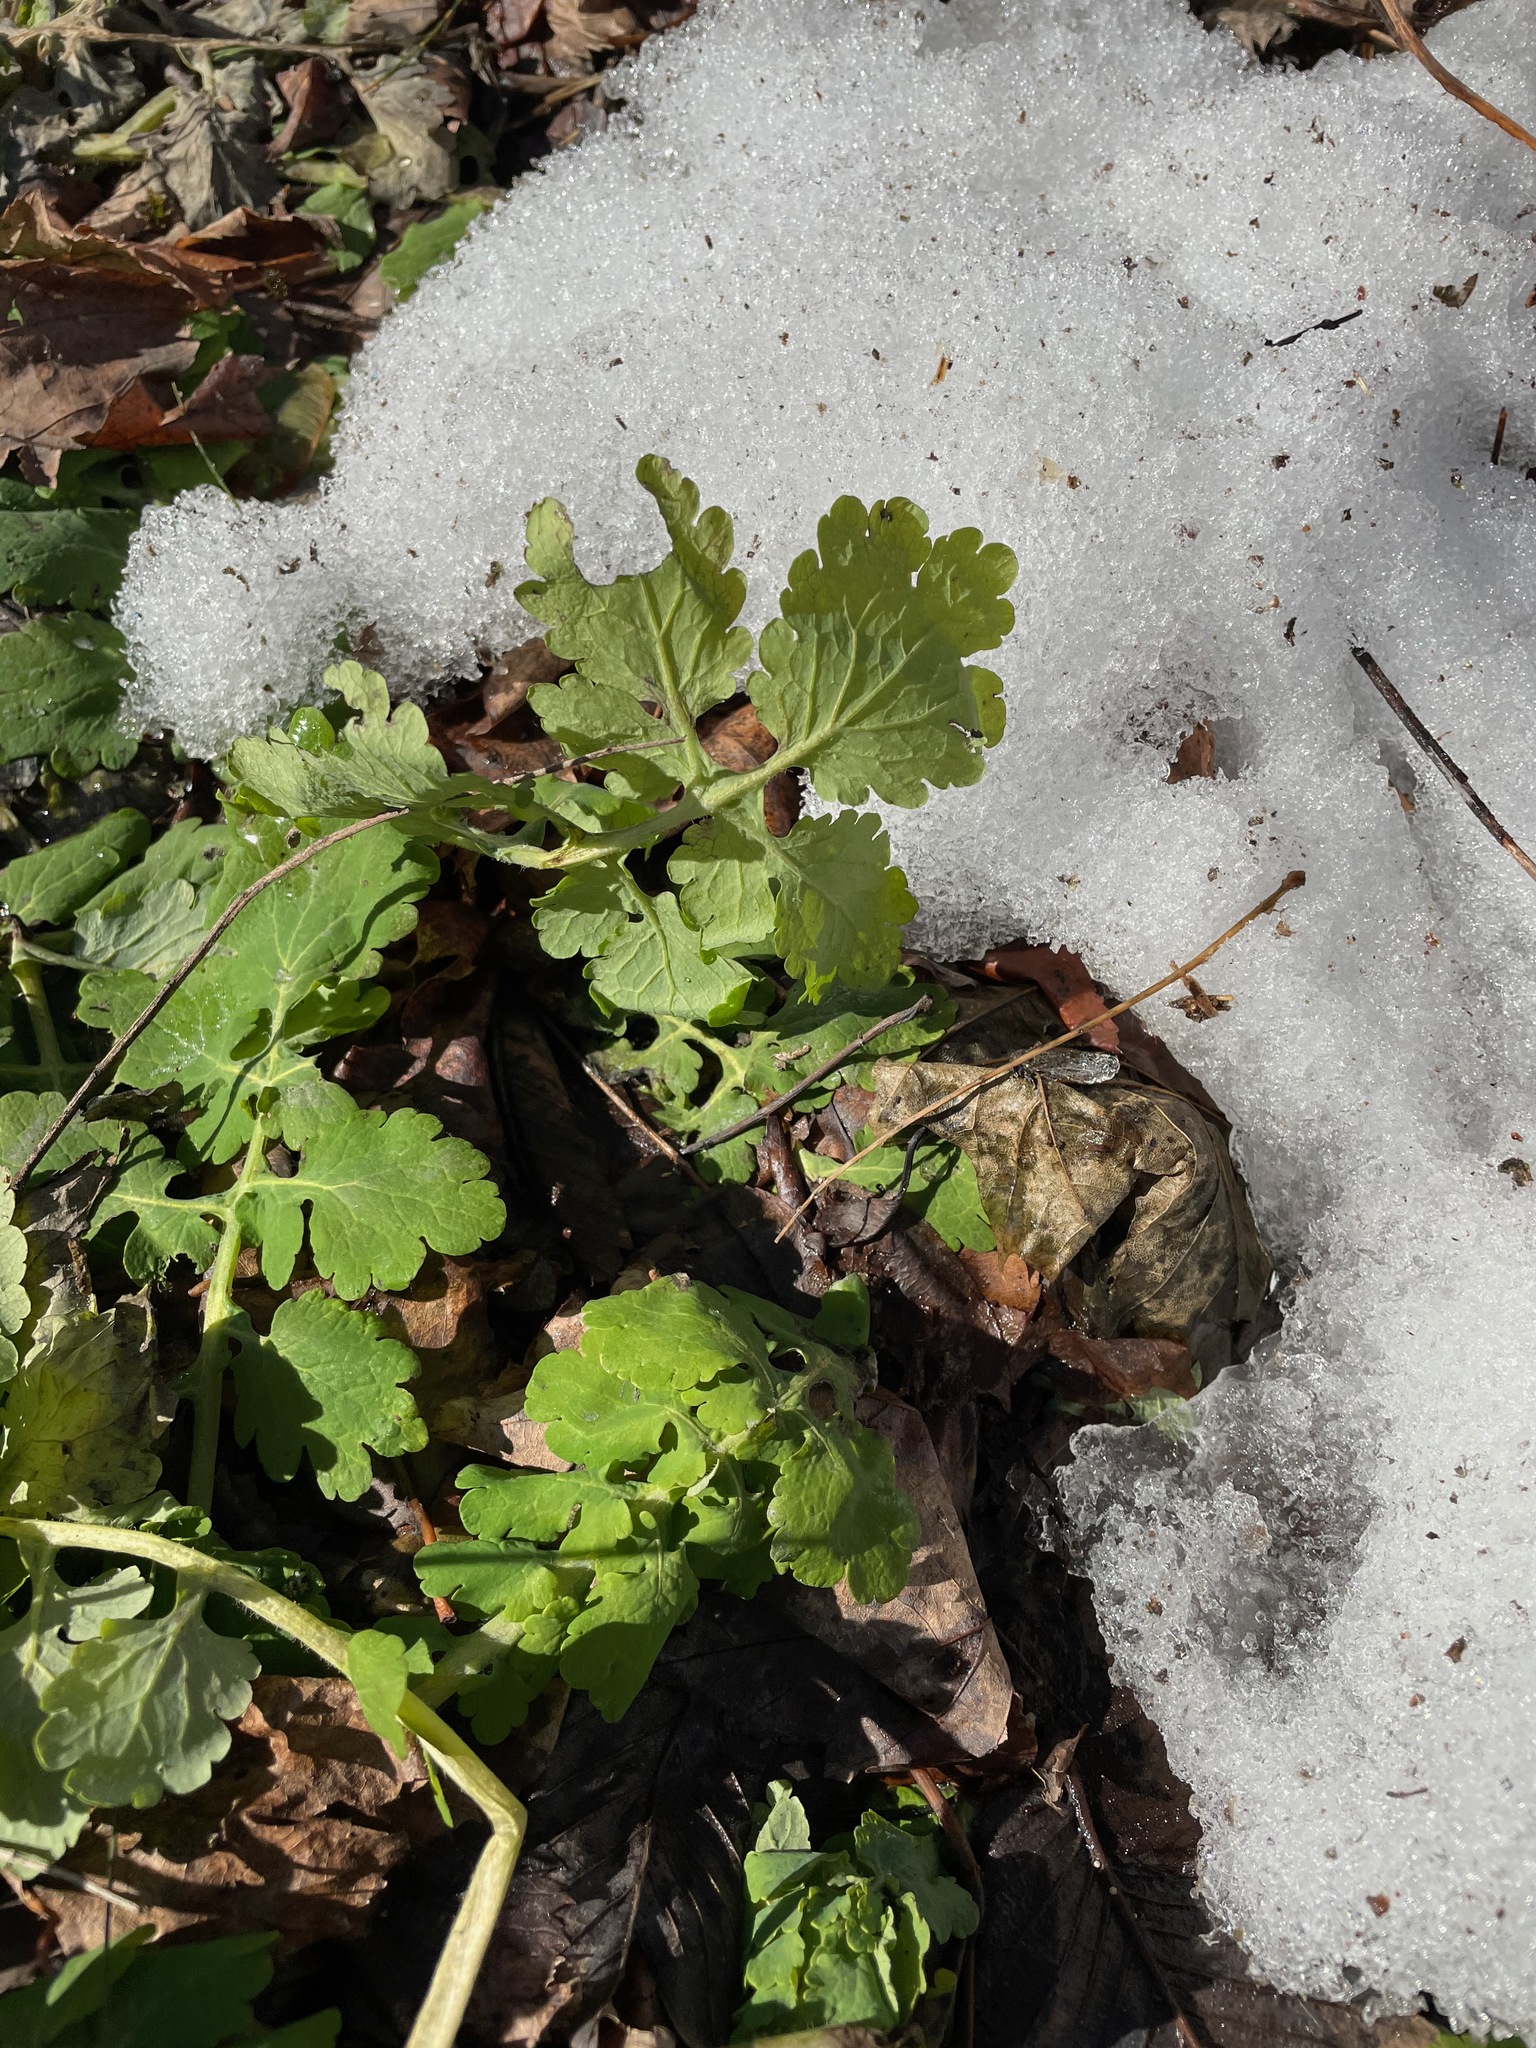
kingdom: Plantae
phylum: Tracheophyta
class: Magnoliopsida
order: Ranunculales
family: Papaveraceae
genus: Chelidonium
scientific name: Chelidonium majus
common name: Greater celandine
